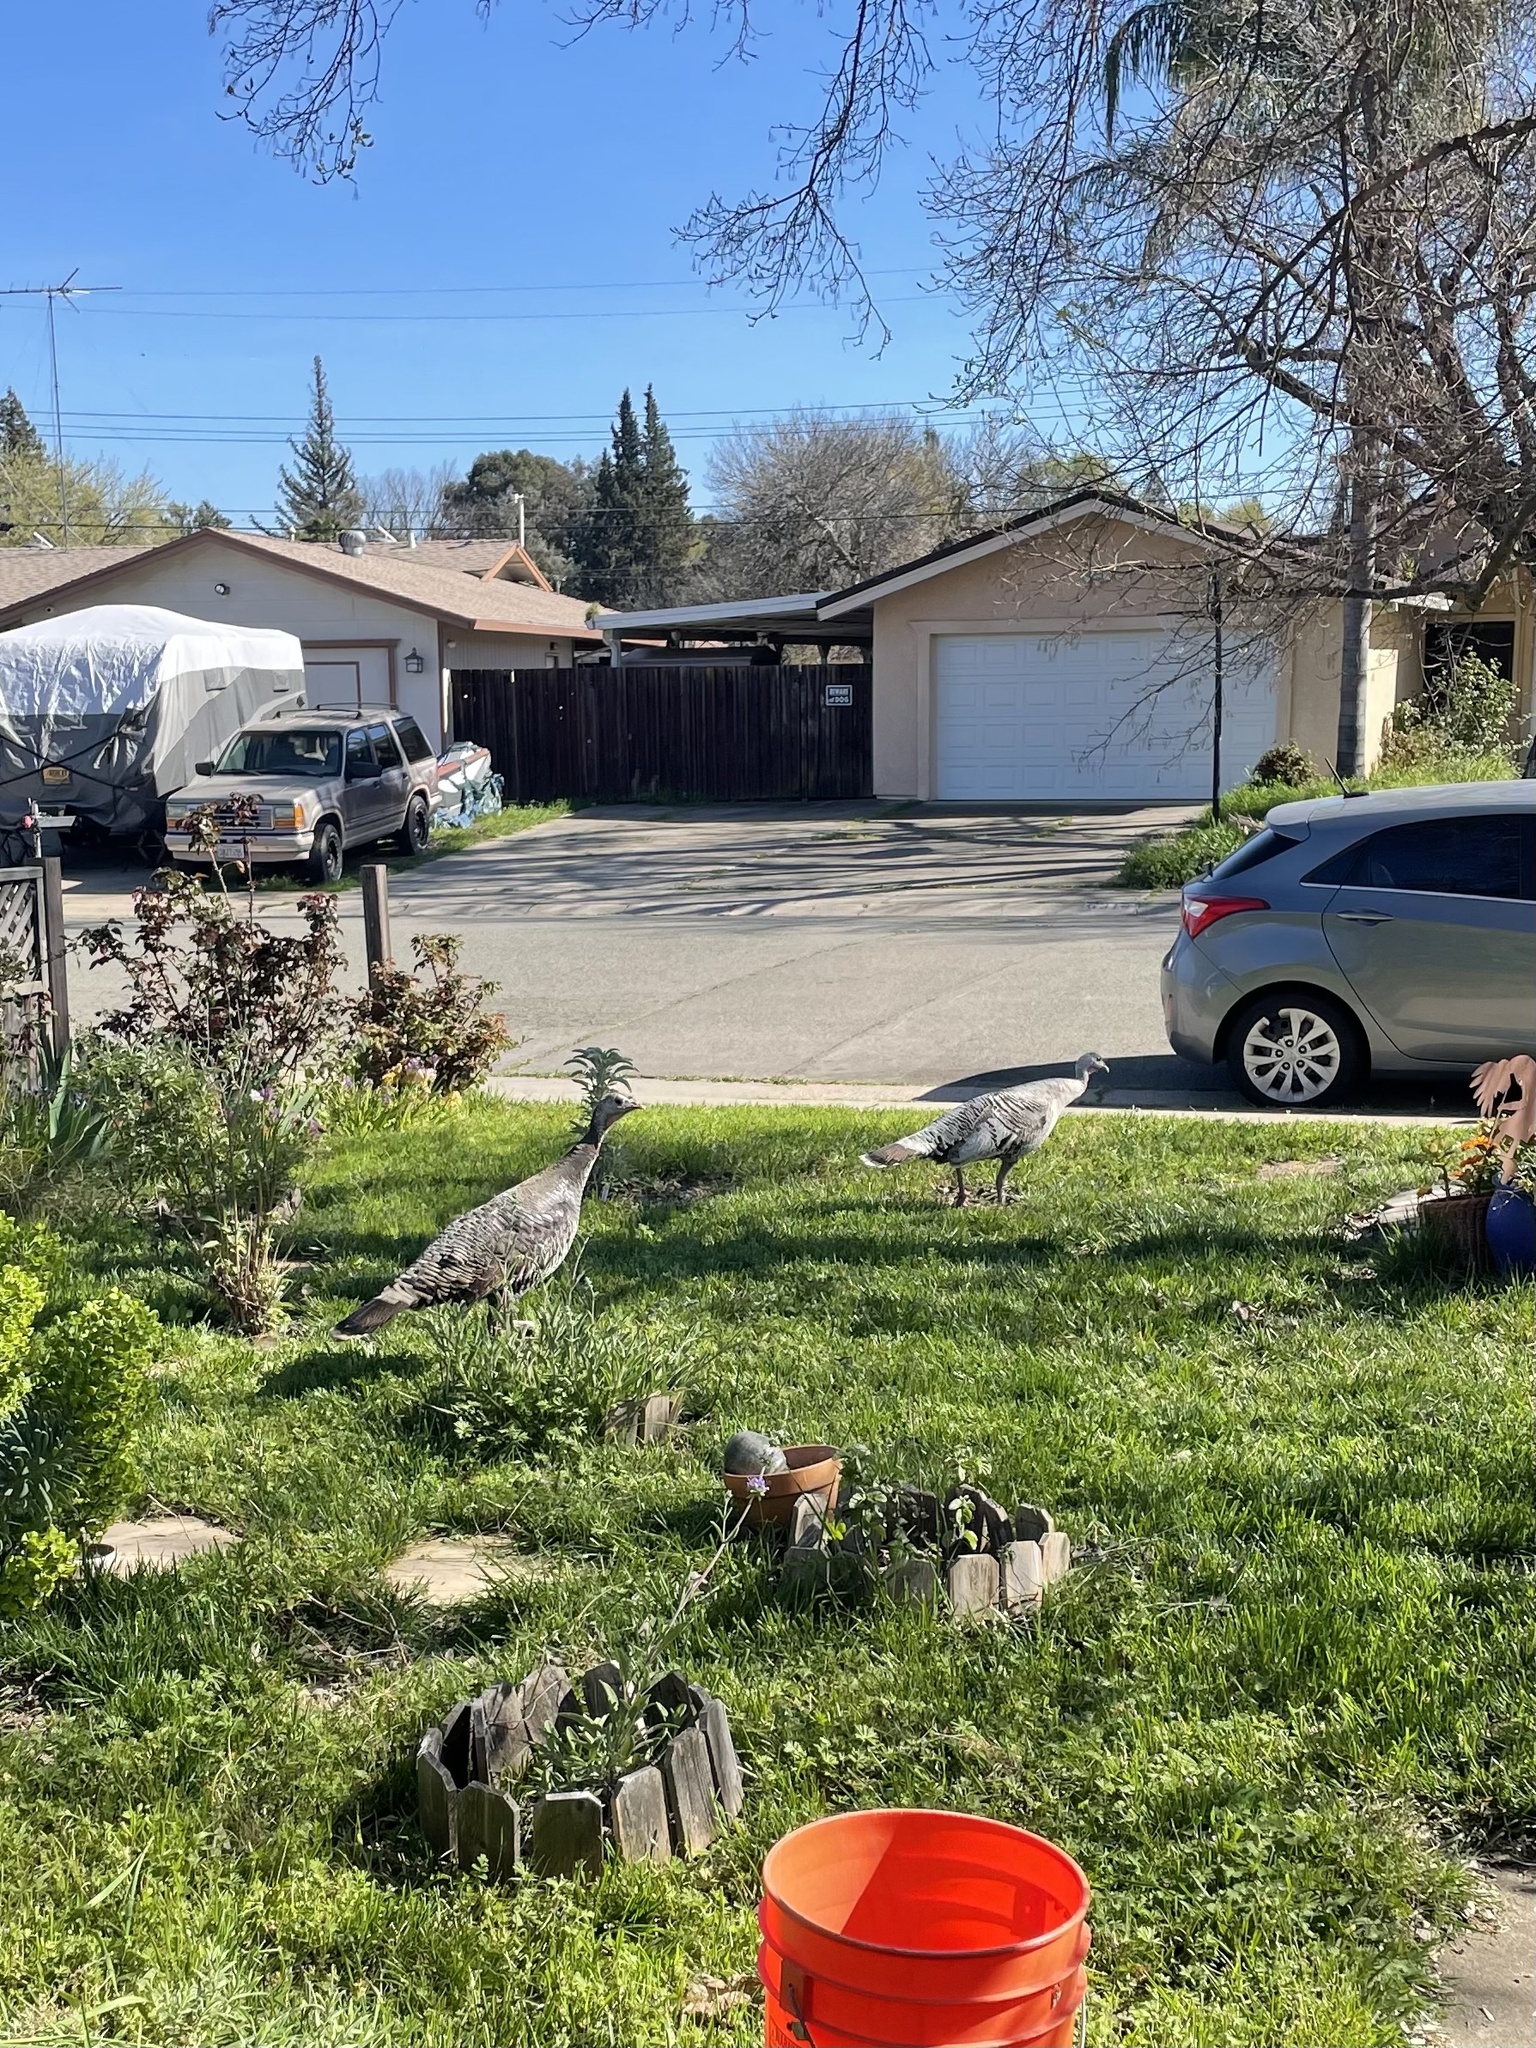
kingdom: Animalia
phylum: Chordata
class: Aves
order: Galliformes
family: Phasianidae
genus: Meleagris
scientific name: Meleagris gallopavo
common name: Wild turkey
